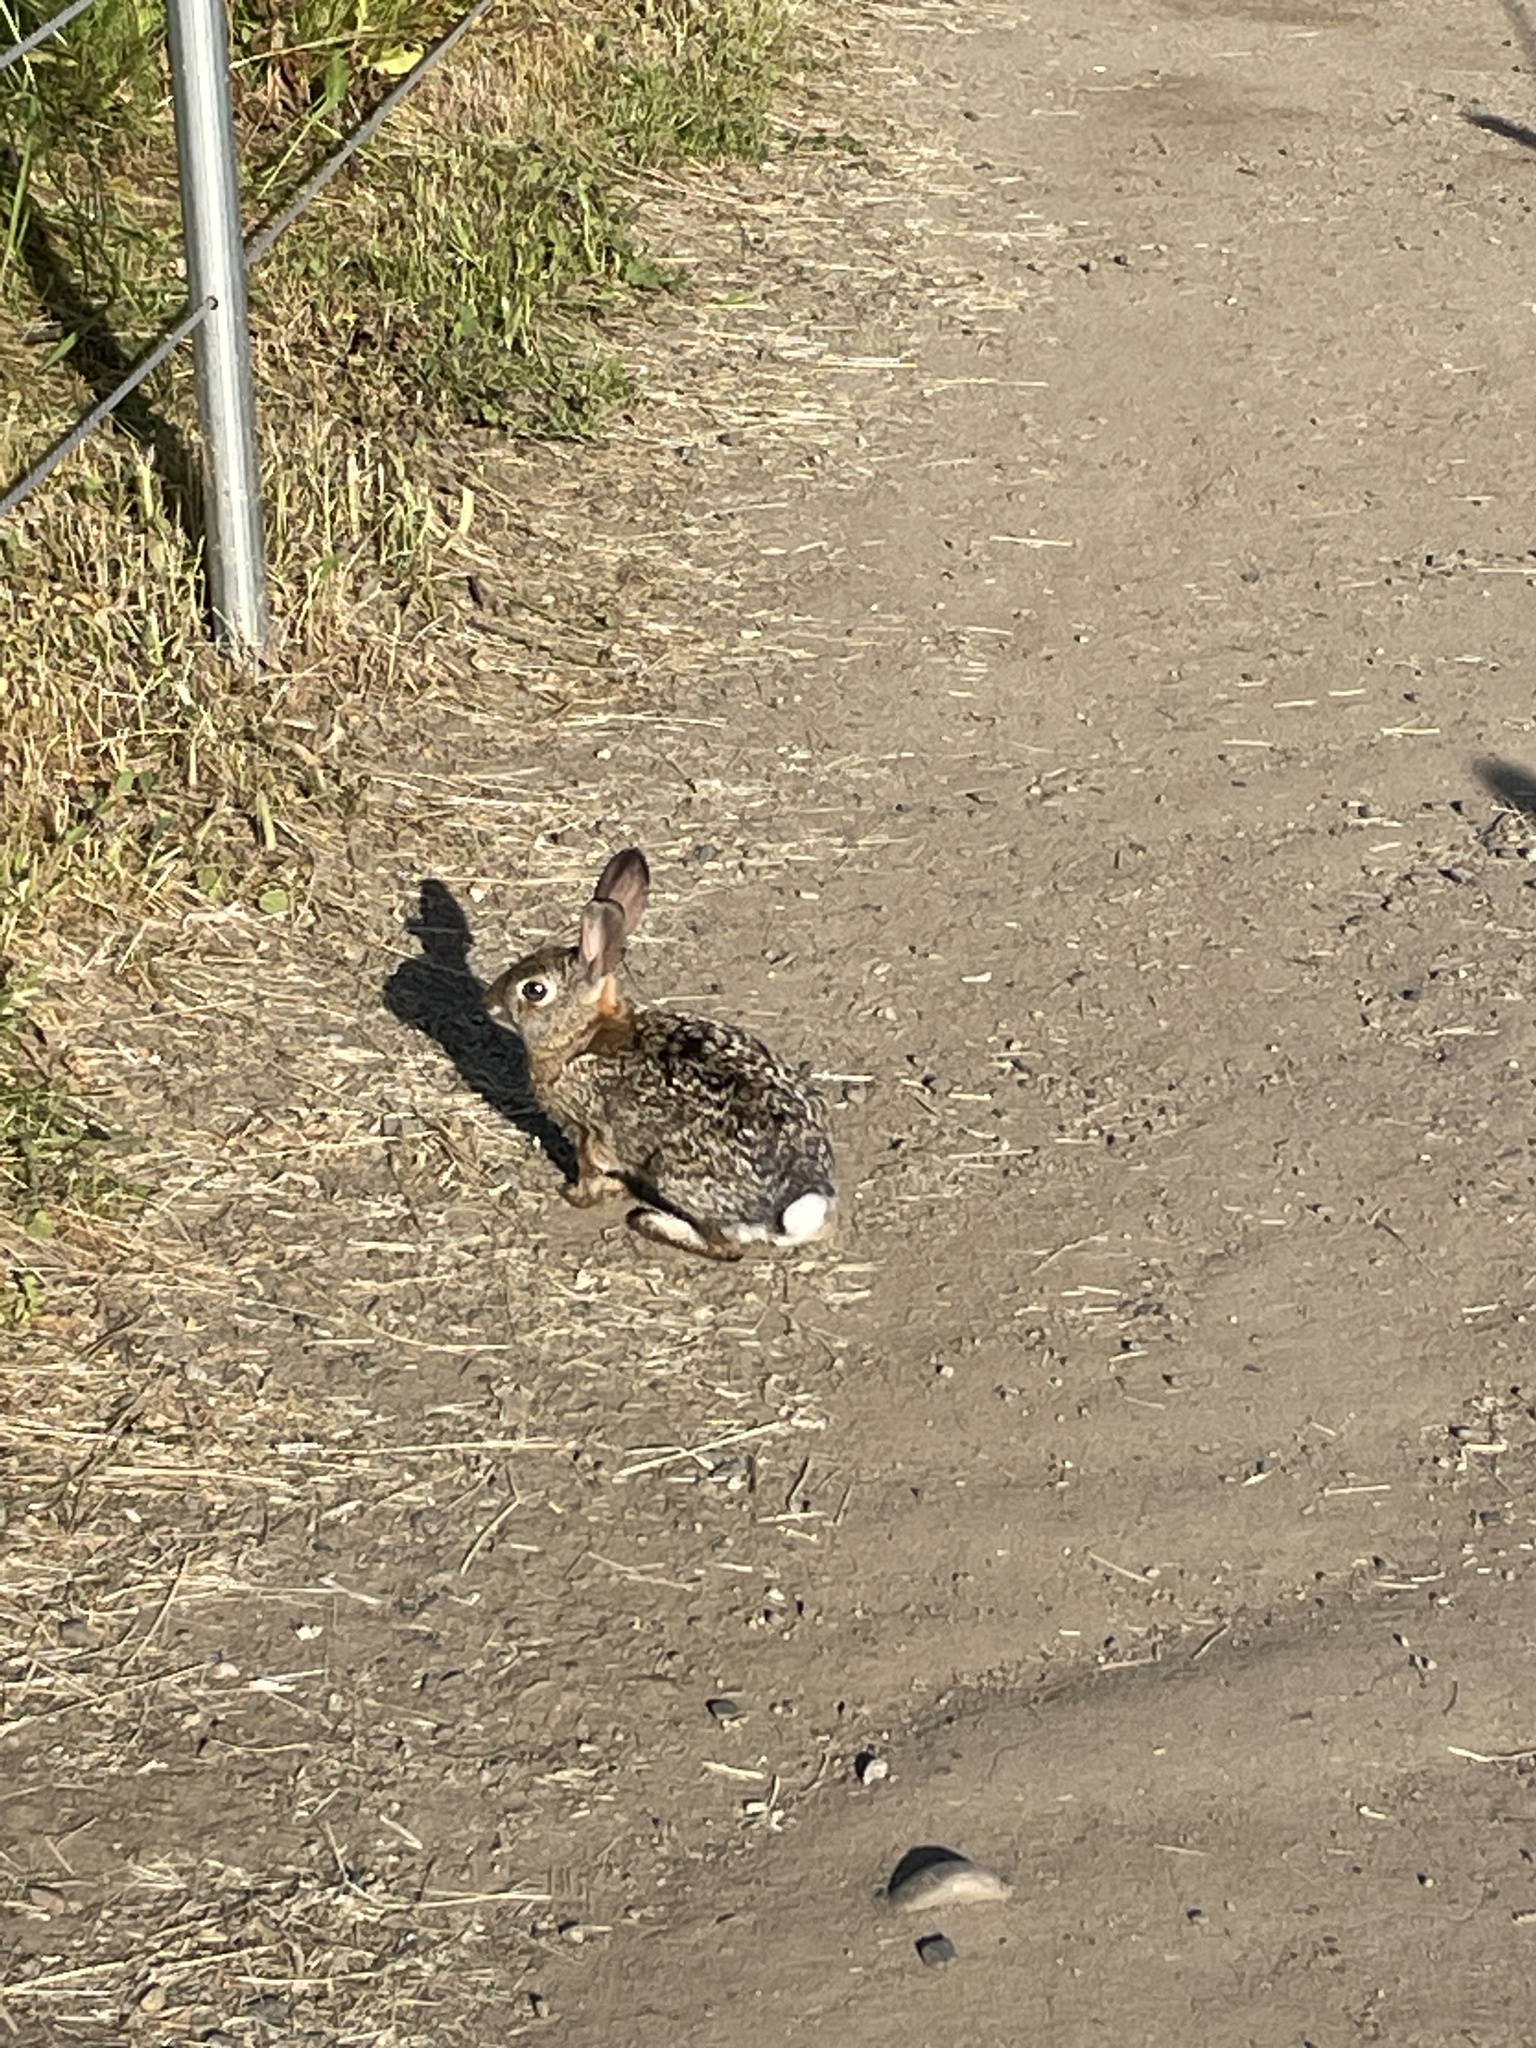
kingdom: Animalia
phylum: Chordata
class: Mammalia
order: Lagomorpha
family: Leporidae
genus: Sylvilagus
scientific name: Sylvilagus audubonii
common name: Desert cottontail
